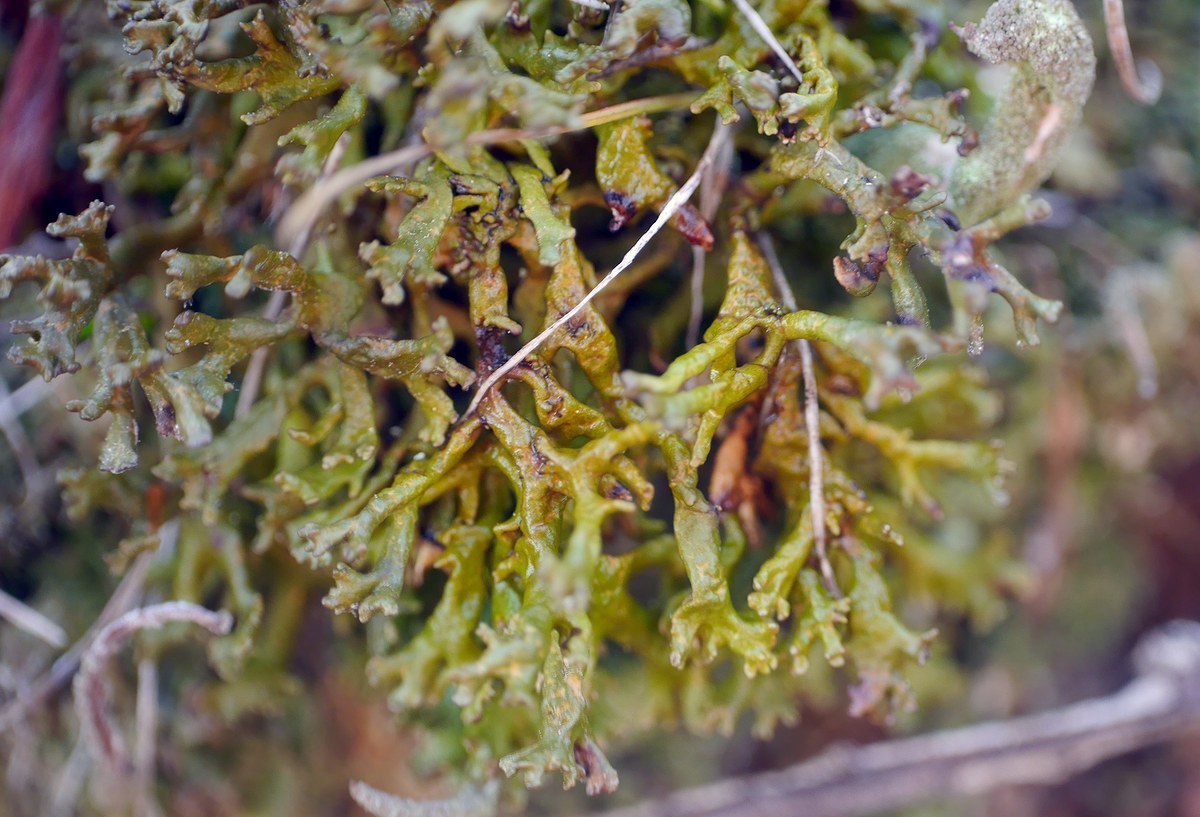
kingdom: Fungi
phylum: Ascomycota
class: Lecanoromycetes
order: Lecanorales
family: Parmeliaceae
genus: Xanthoparmelia
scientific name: Xanthoparmelia pokornyi
